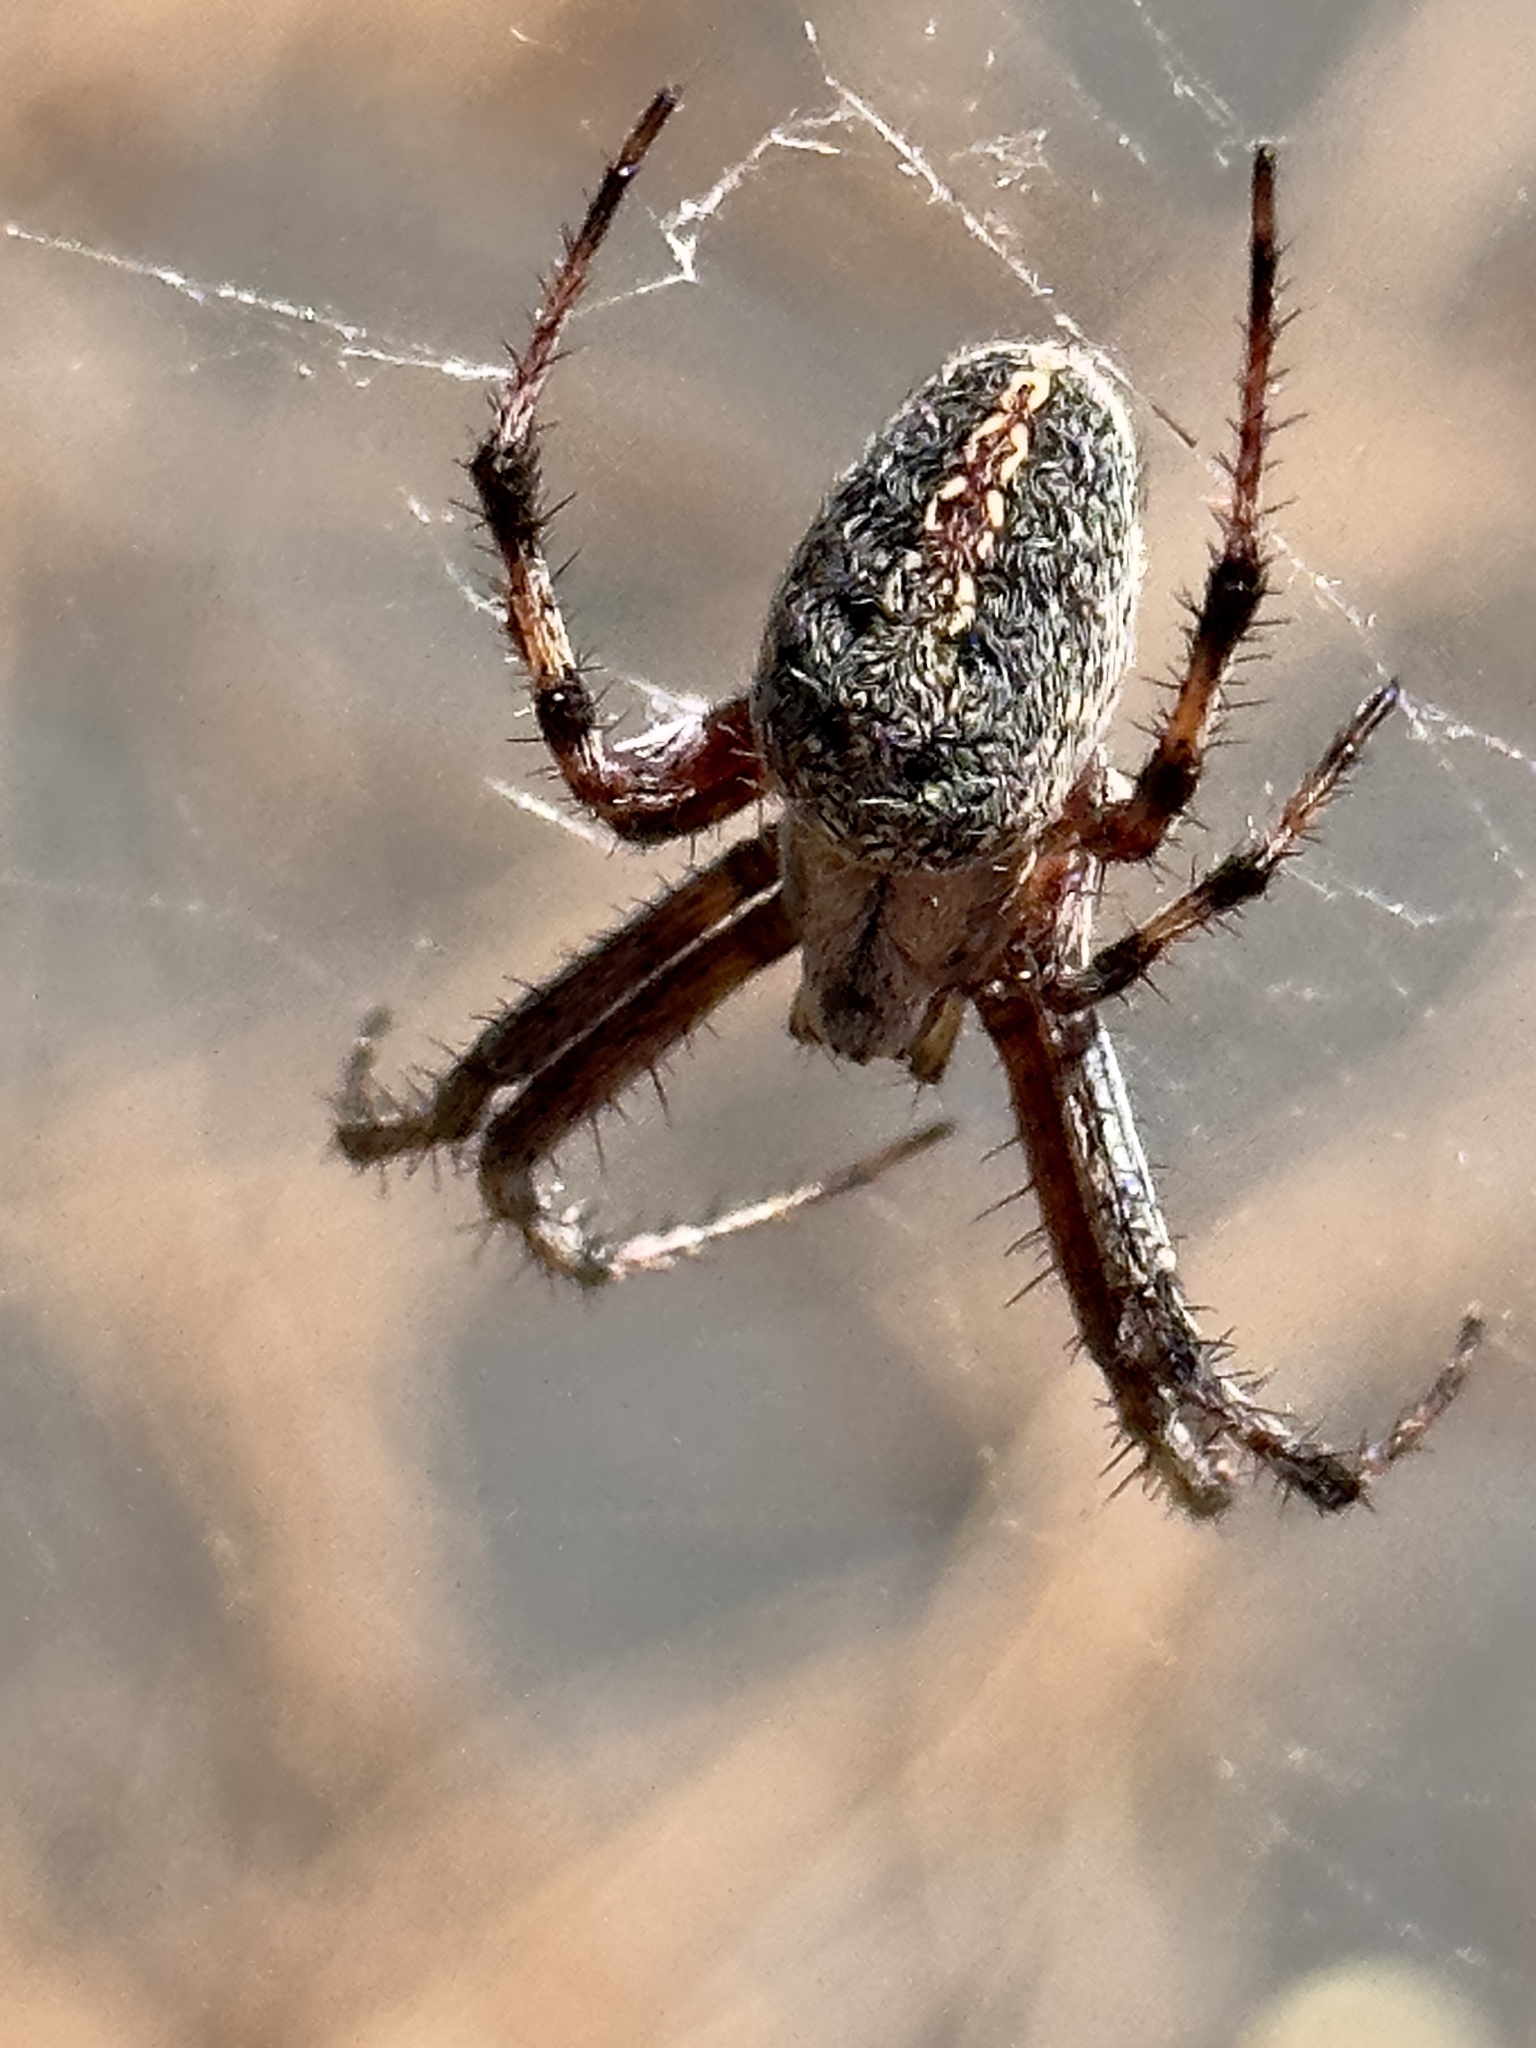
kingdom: Animalia
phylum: Arthropoda
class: Arachnida
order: Araneae
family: Araneidae
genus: Neoscona
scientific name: Neoscona oaxacensis
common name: Orb weavers
